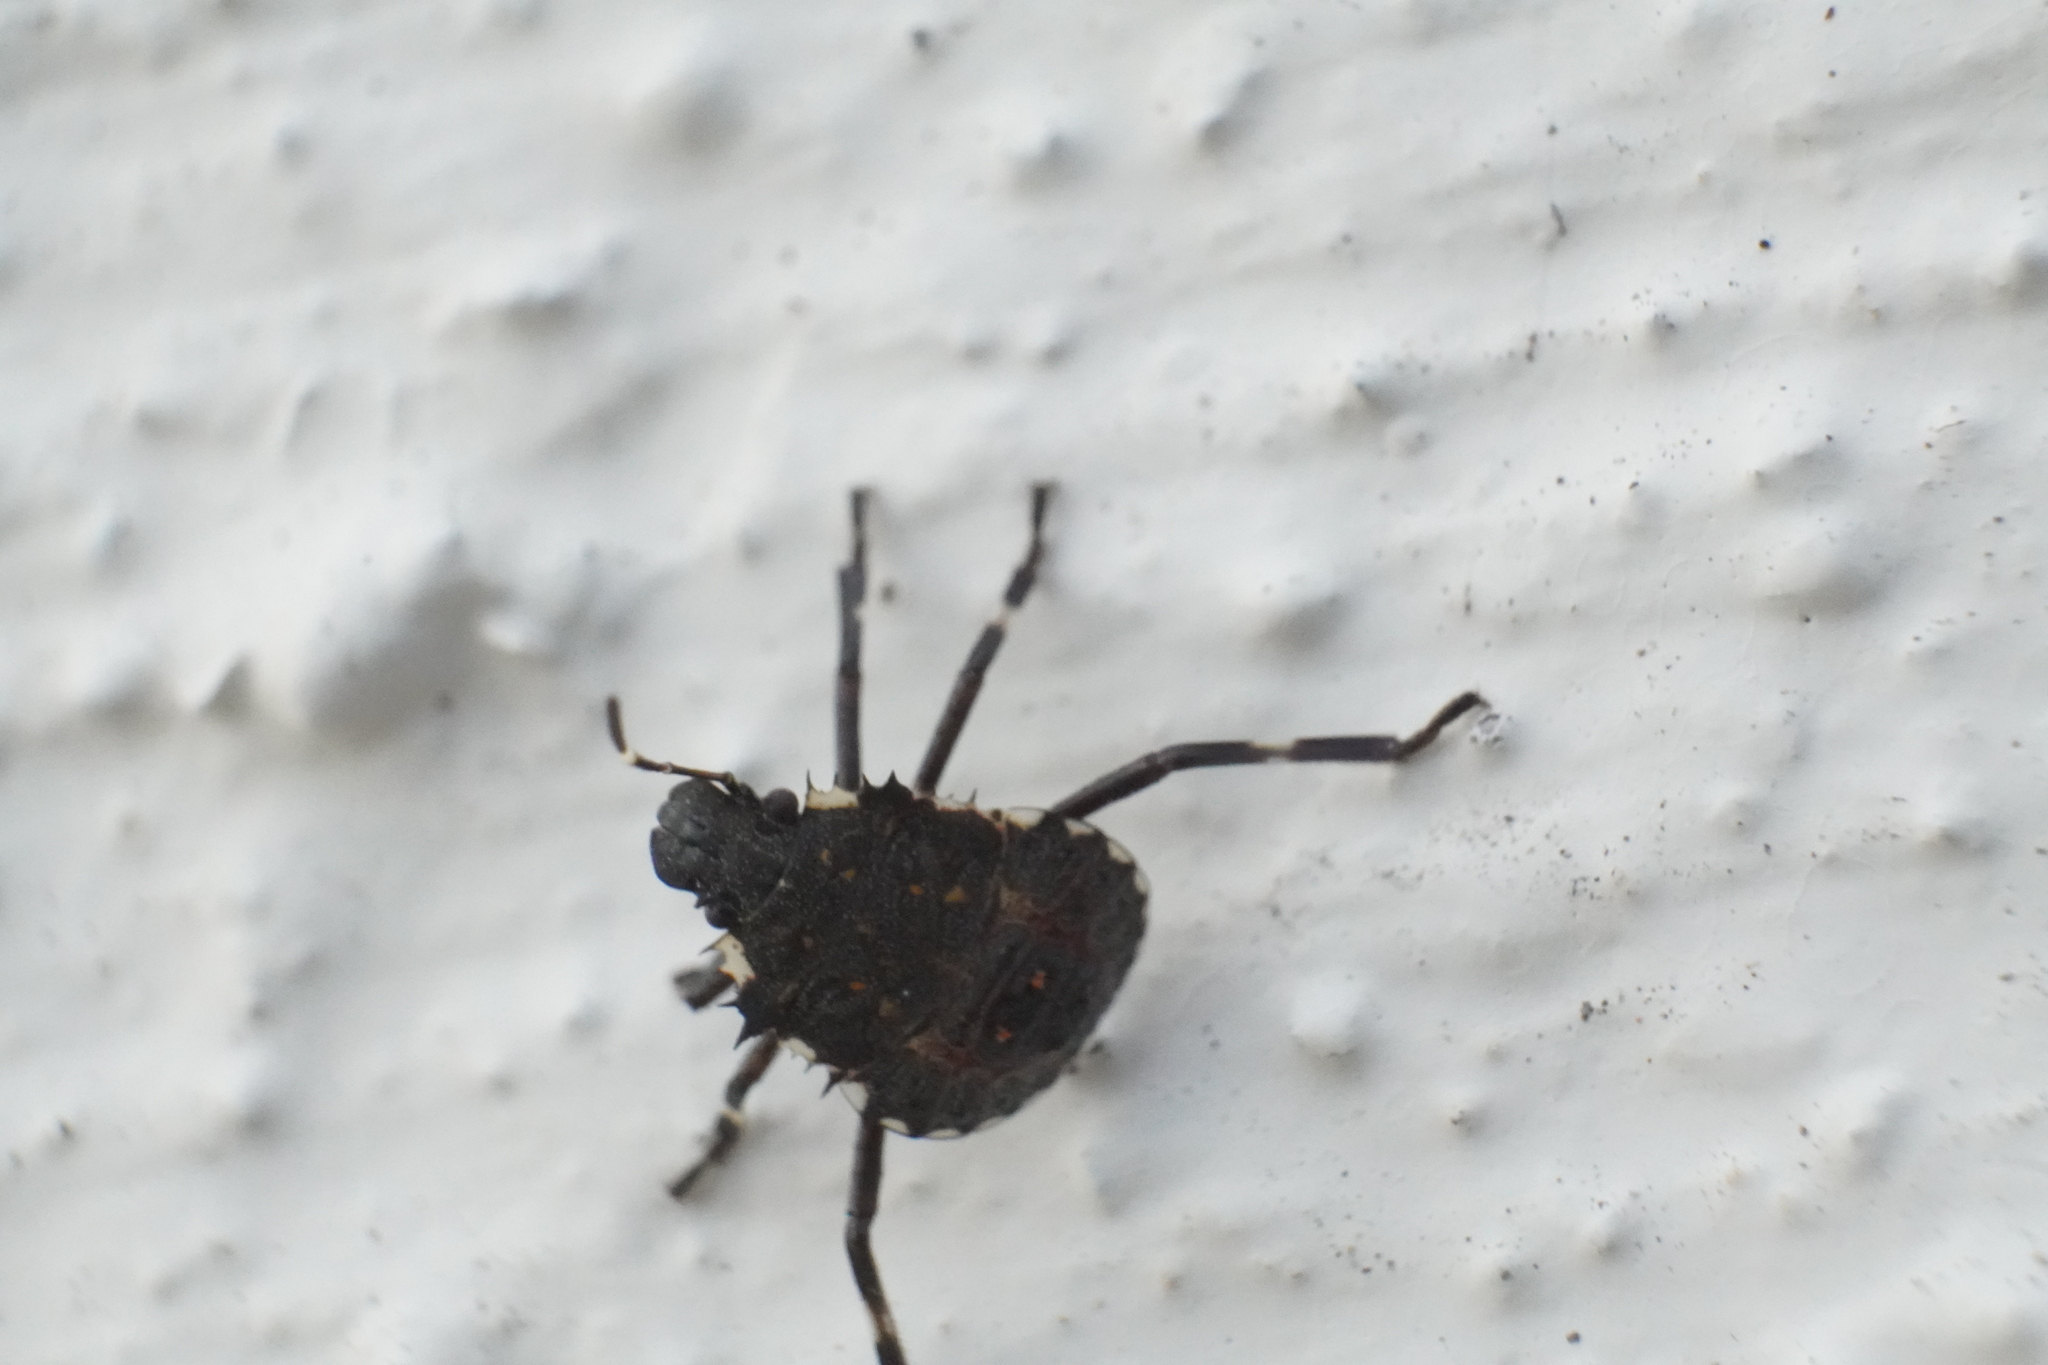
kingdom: Animalia
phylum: Arthropoda
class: Insecta
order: Hemiptera
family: Pentatomidae
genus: Halyomorpha
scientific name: Halyomorpha halys
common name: Brown marmorated stink bug
